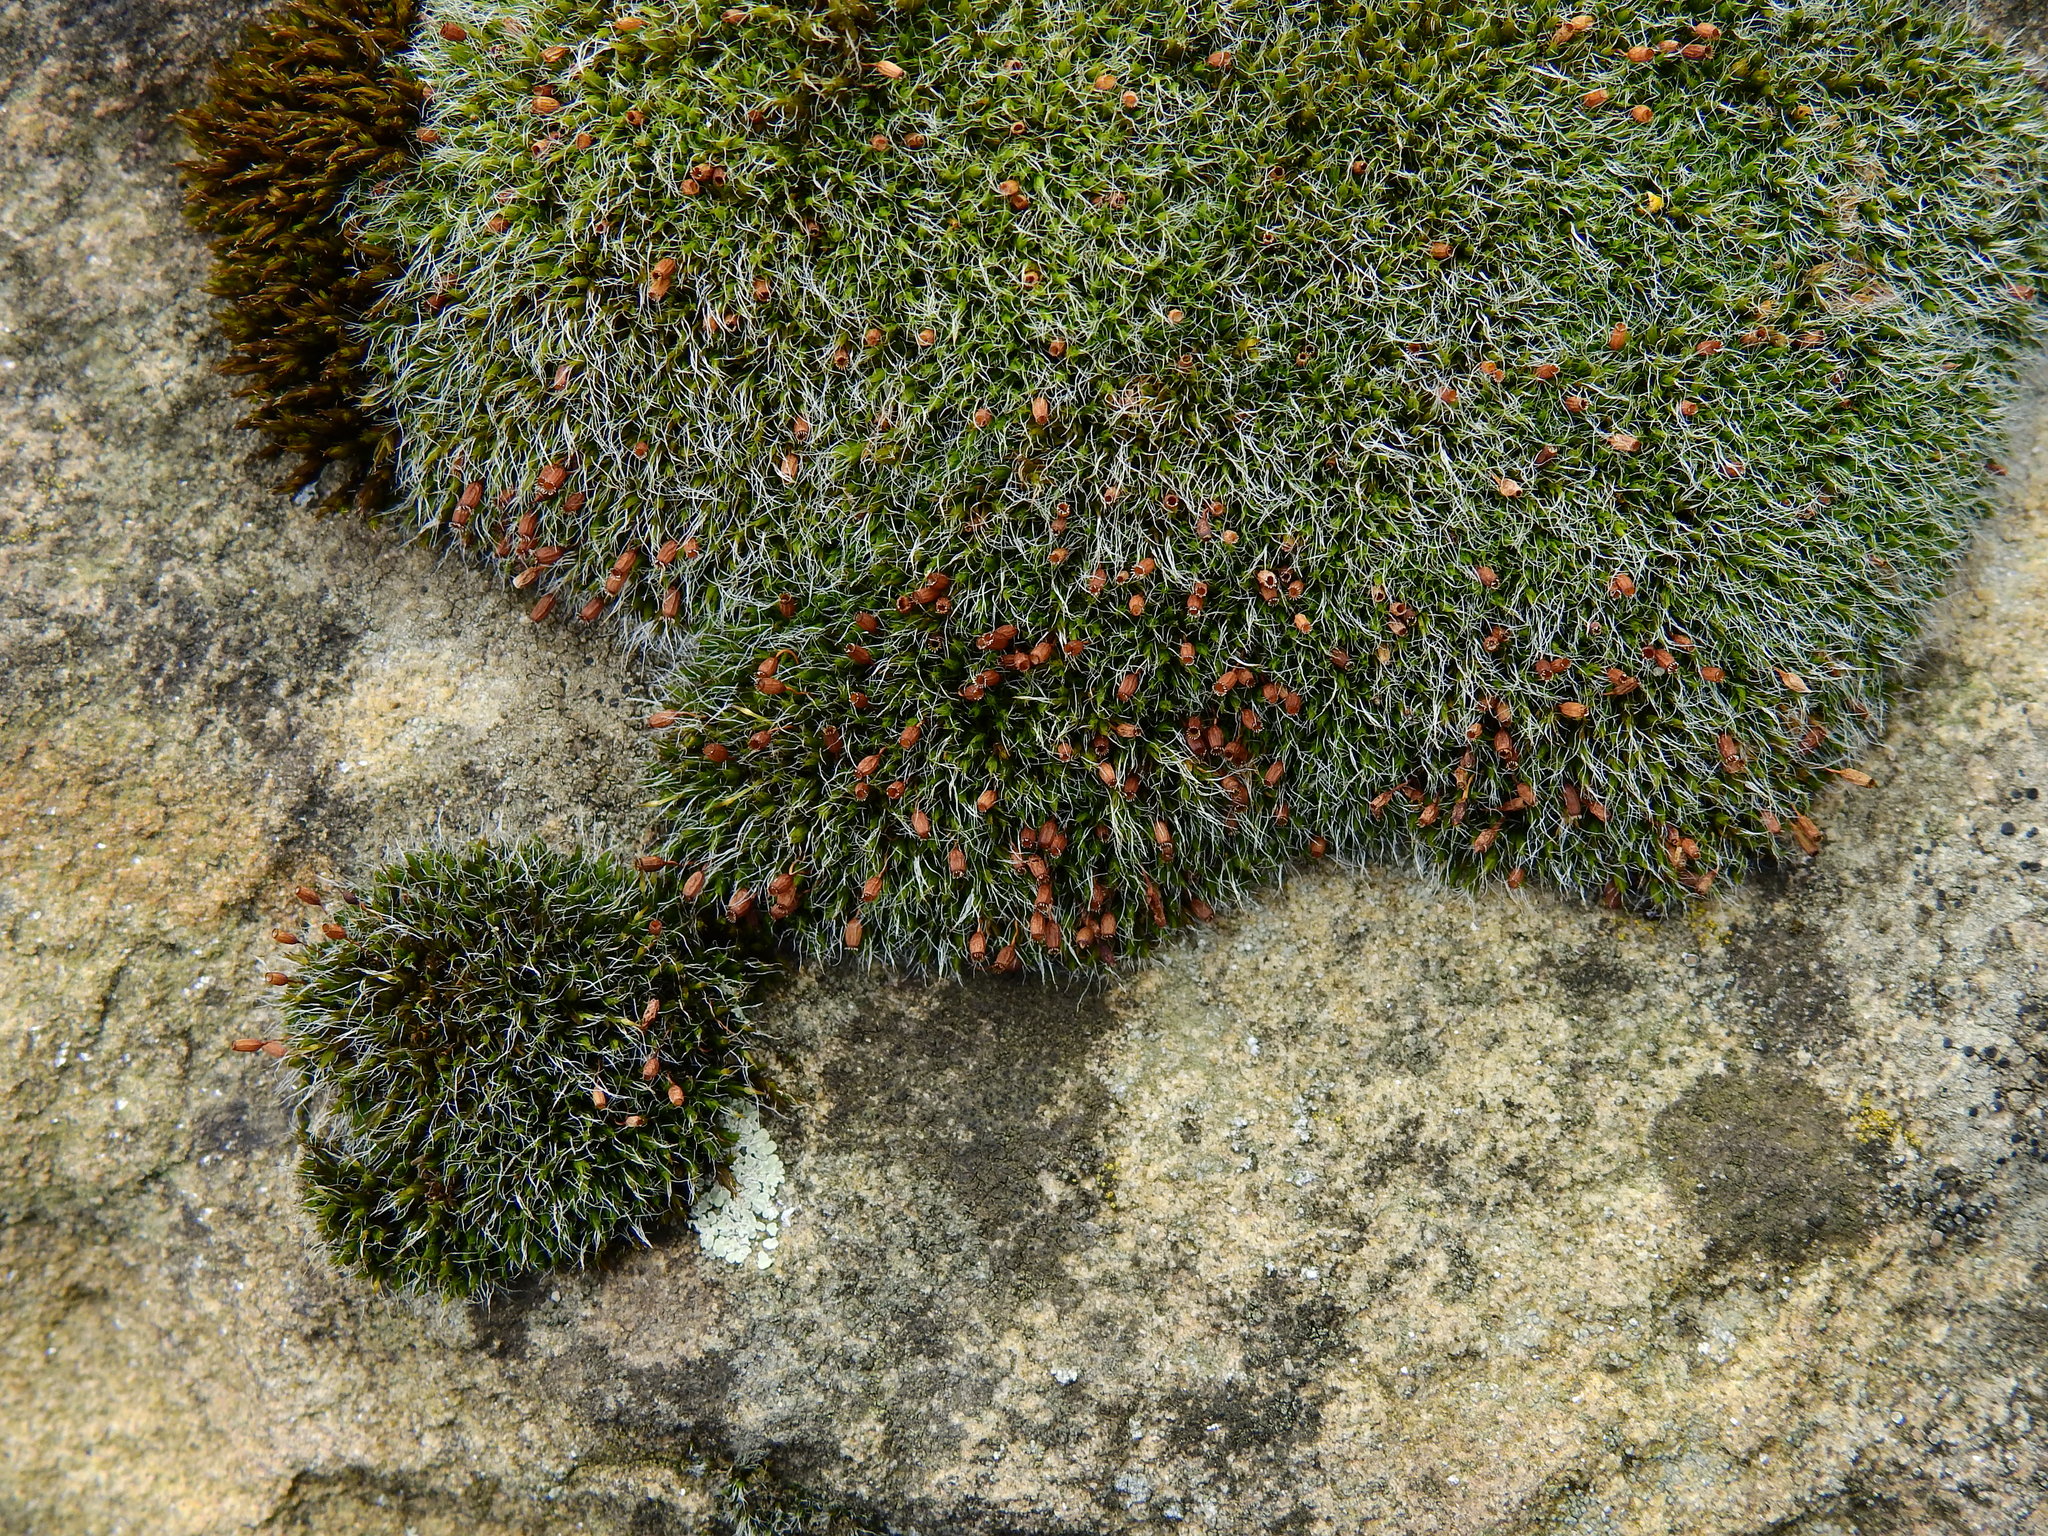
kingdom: Plantae
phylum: Bryophyta
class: Bryopsida
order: Grimmiales
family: Grimmiaceae
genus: Grimmia
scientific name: Grimmia pulvinata
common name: Grey-cushioned grimmia
